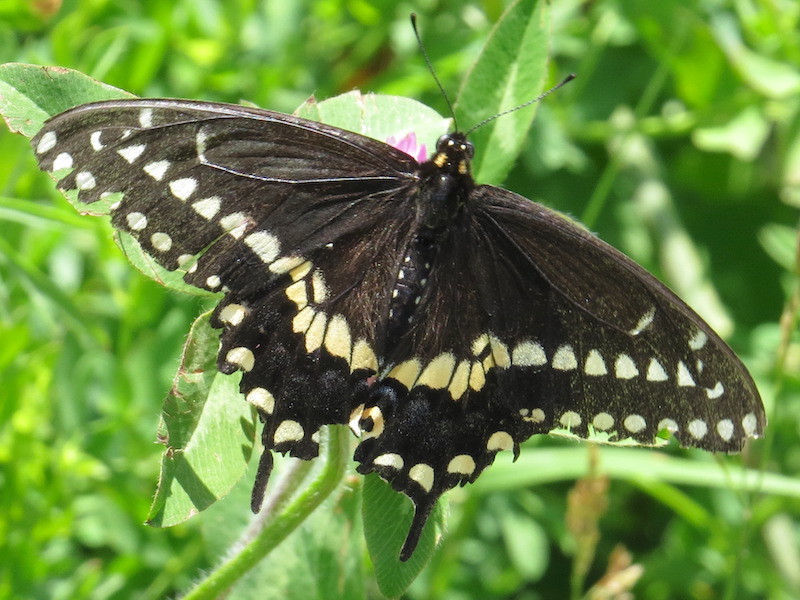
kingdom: Animalia
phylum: Arthropoda
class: Insecta
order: Lepidoptera
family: Papilionidae
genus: Papilio
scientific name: Papilio polyxenes
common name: Black swallowtail
